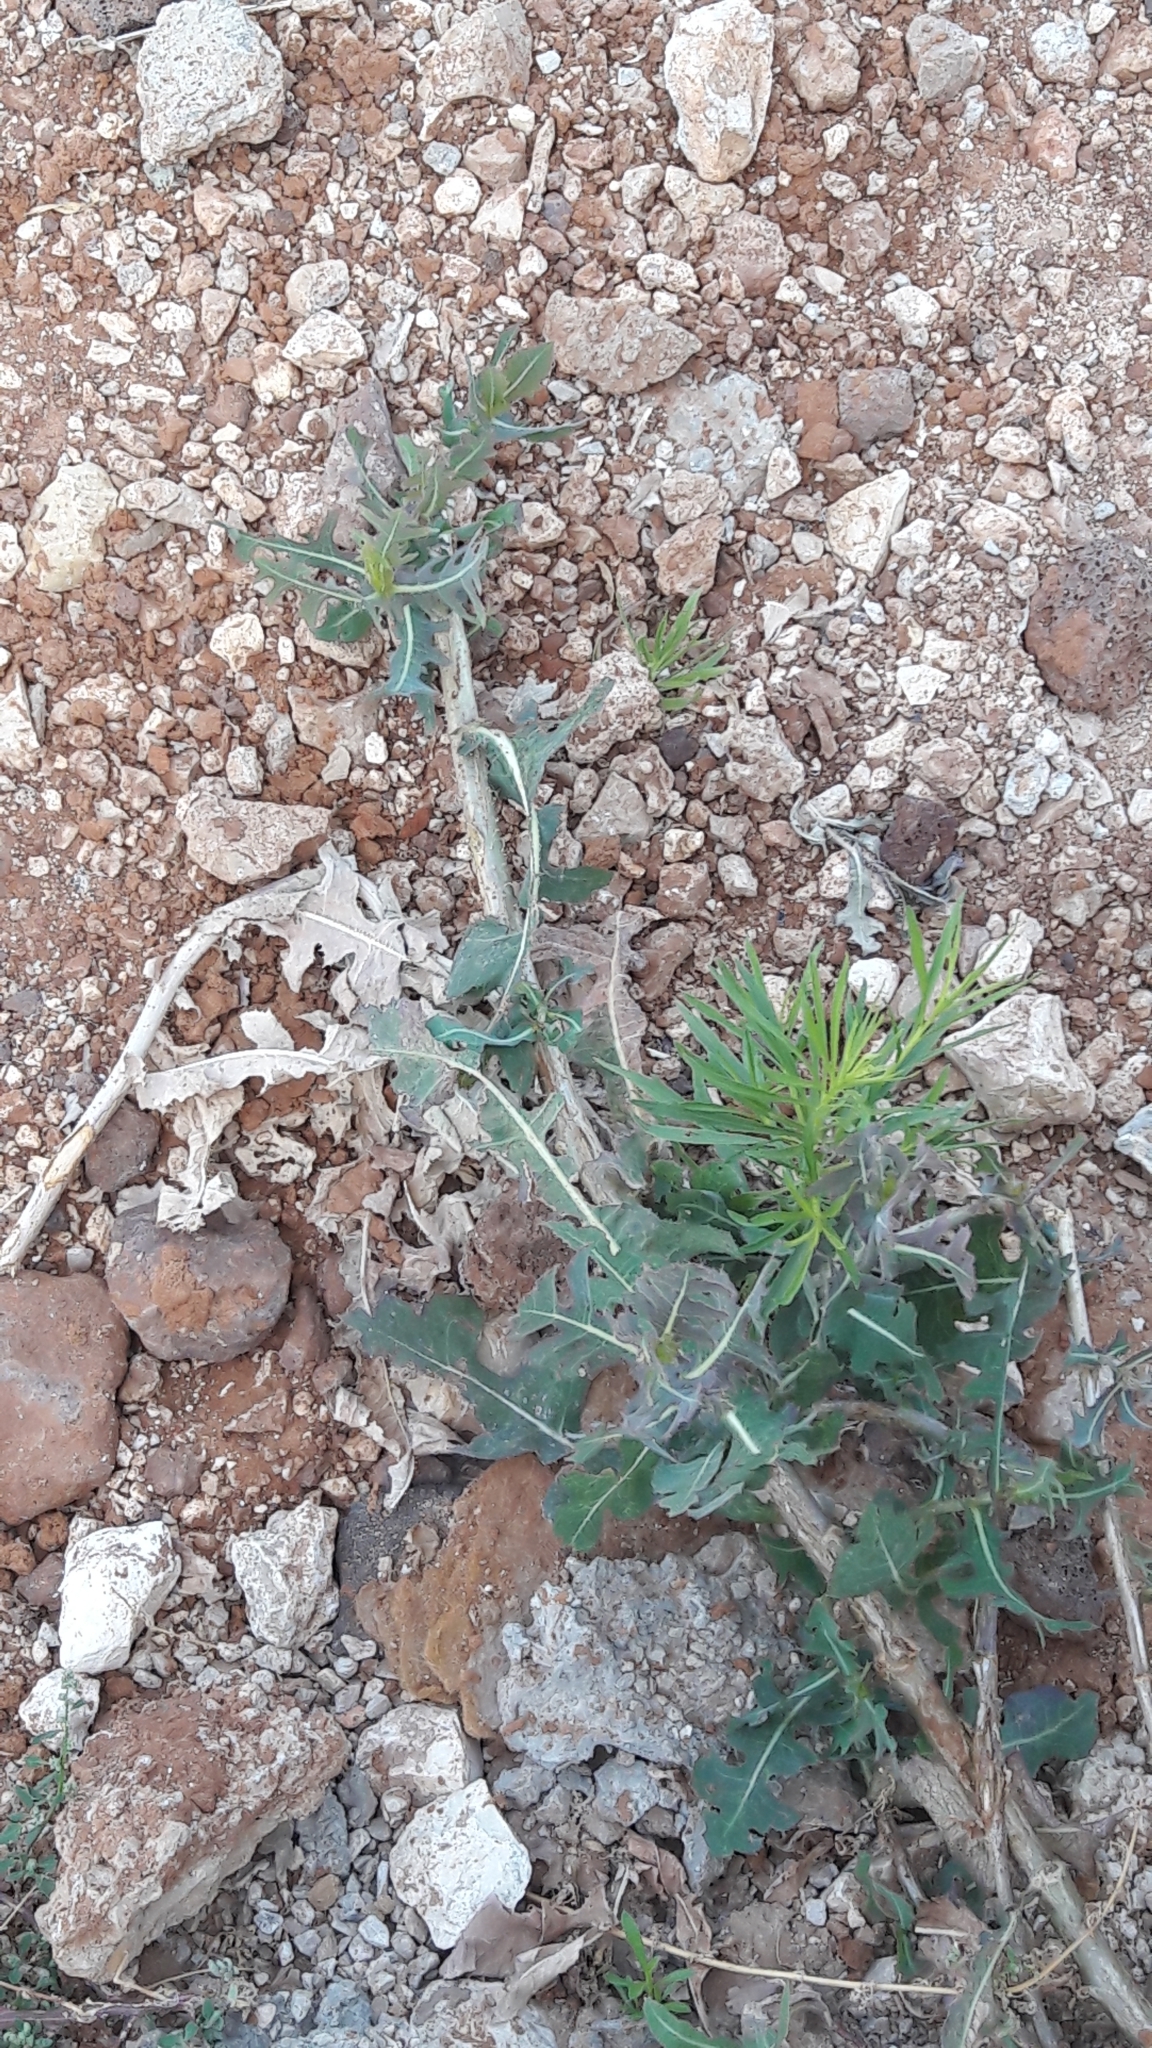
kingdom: Plantae
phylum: Tracheophyta
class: Magnoliopsida
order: Asterales
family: Asteraceae
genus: Lactuca
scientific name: Lactuca serriola
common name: Prickly lettuce
